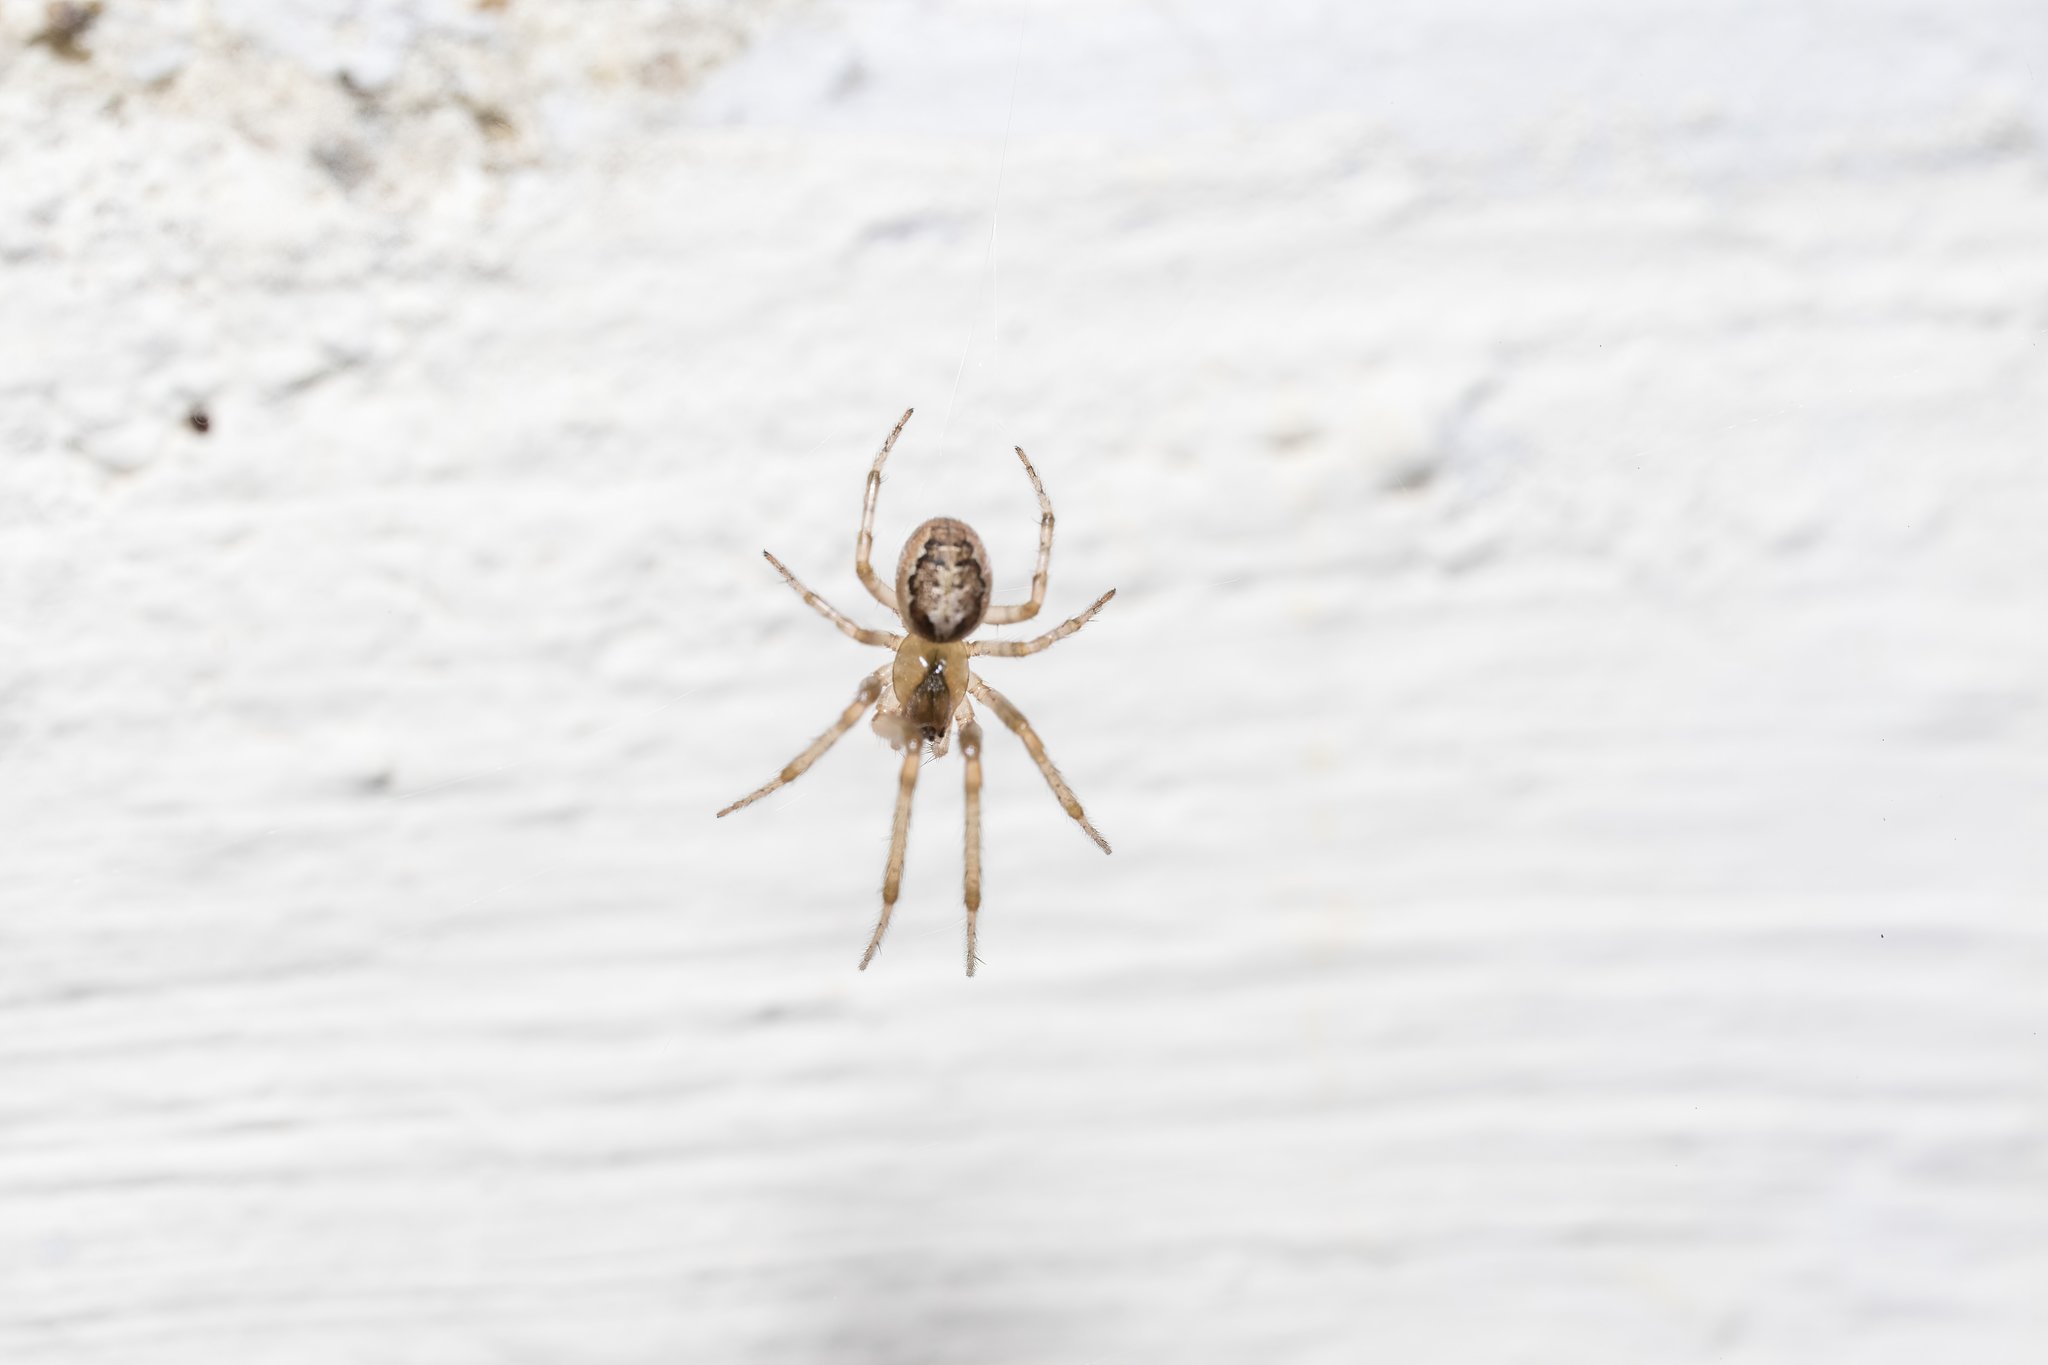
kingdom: Animalia
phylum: Arthropoda
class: Arachnida
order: Araneae
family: Araneidae
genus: Zygiella
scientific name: Zygiella x-notata
